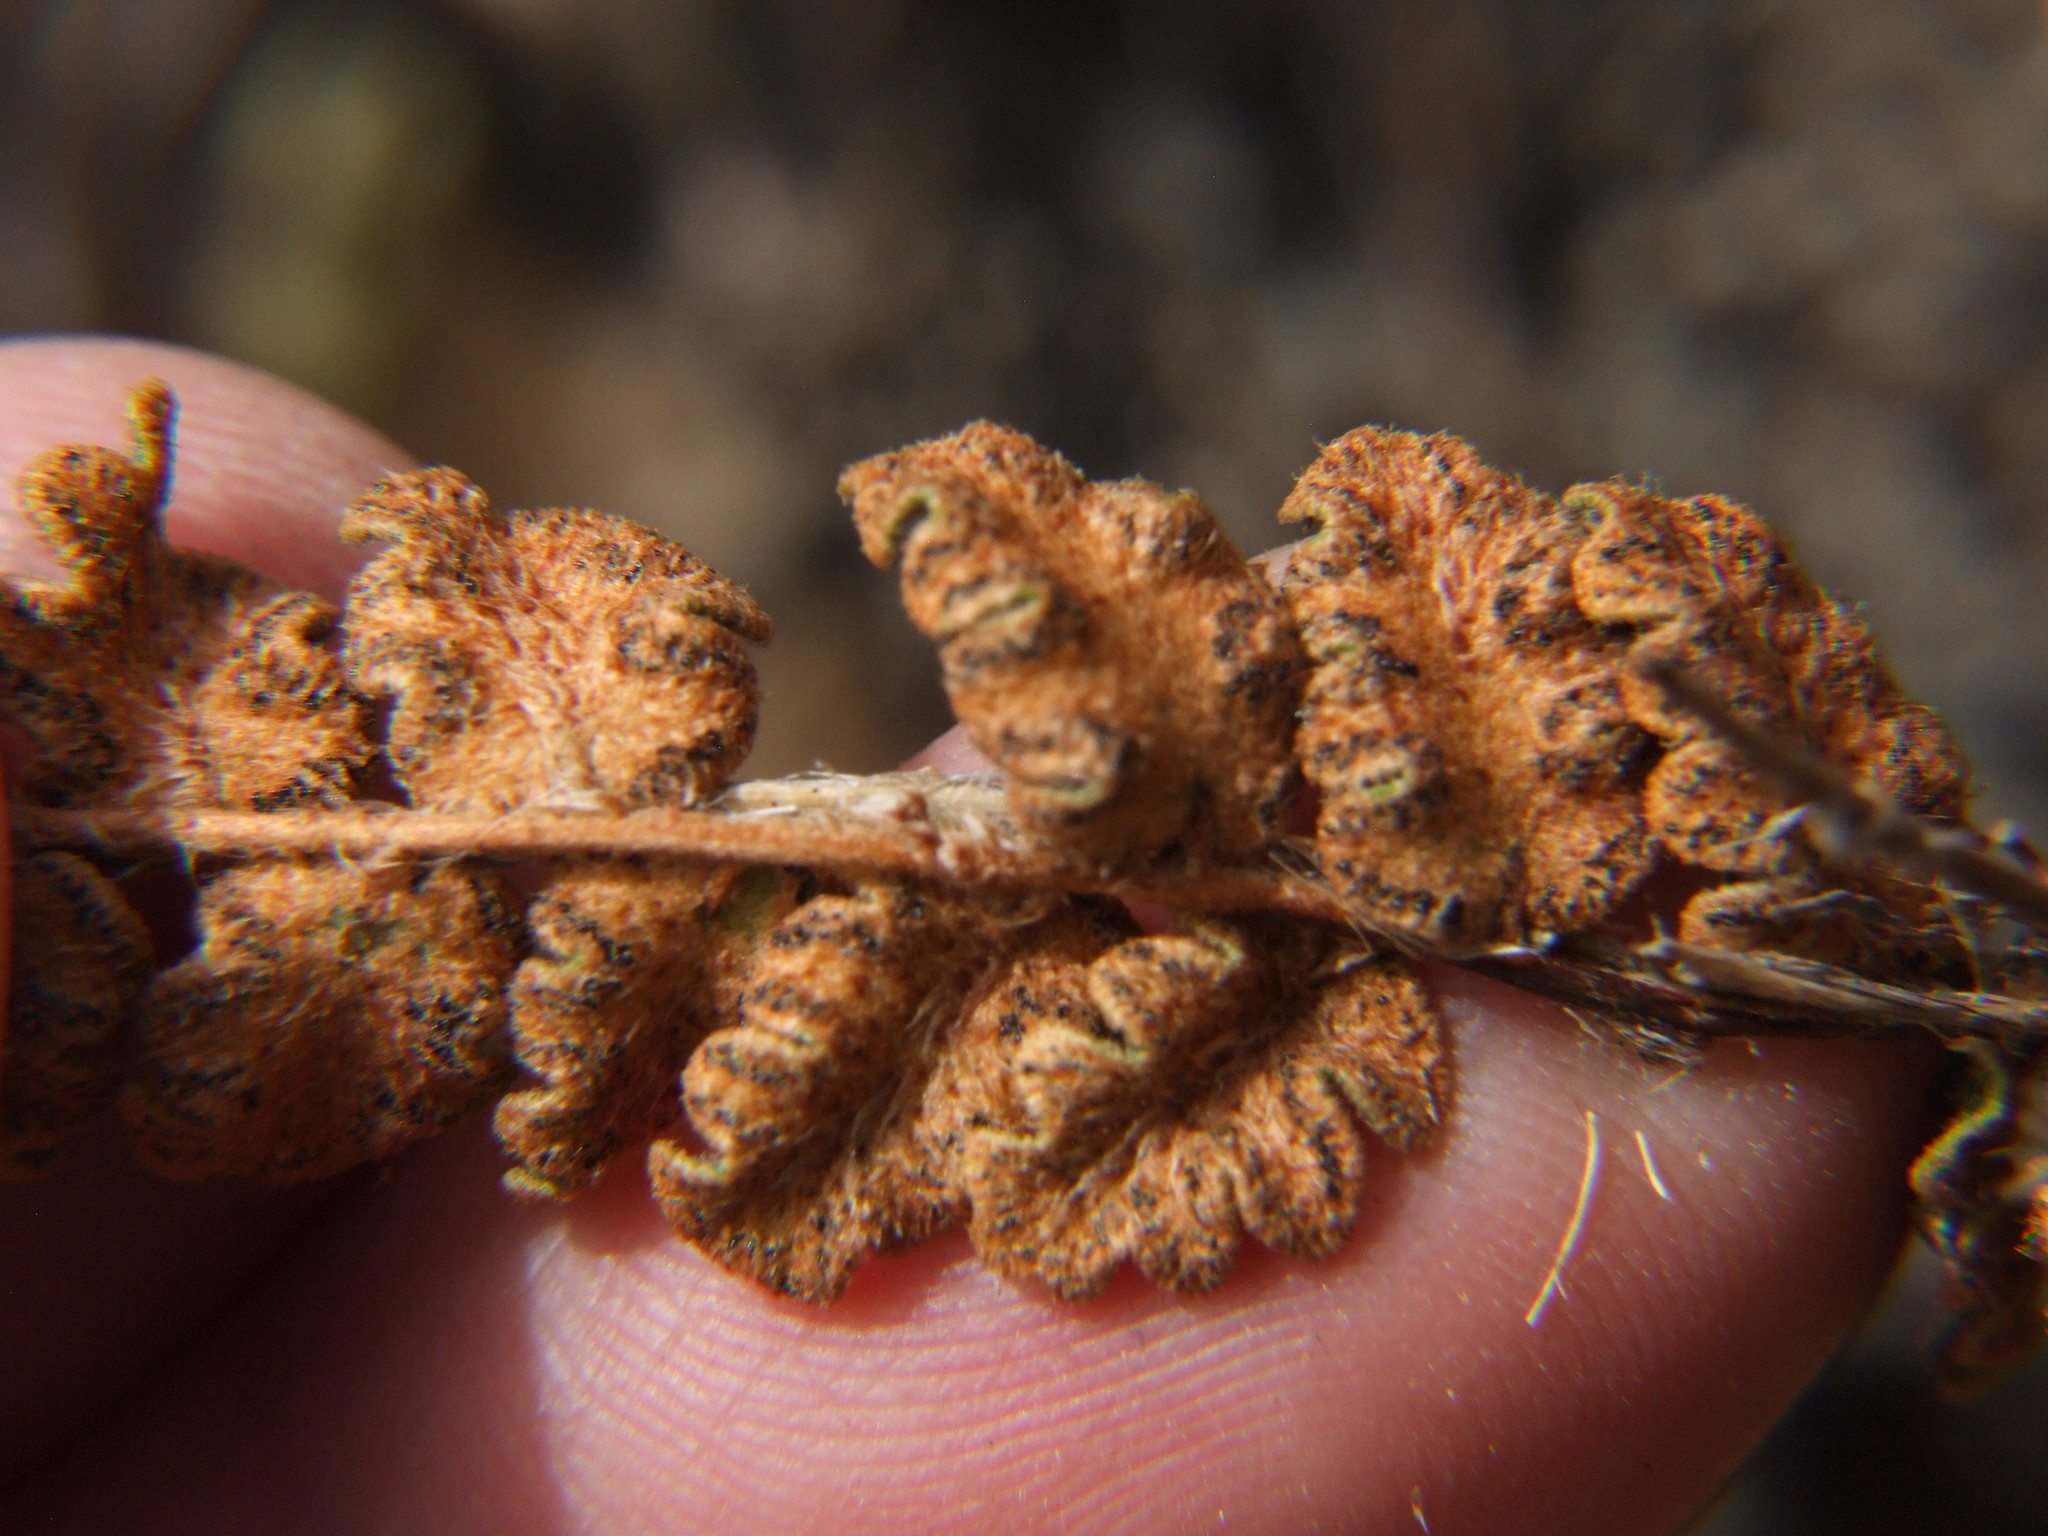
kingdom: Plantae
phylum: Tracheophyta
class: Polypodiopsida
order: Polypodiales
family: Pteridaceae
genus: Astrolepis
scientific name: Astrolepis sinuata
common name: Wavy scaly cloakfern
